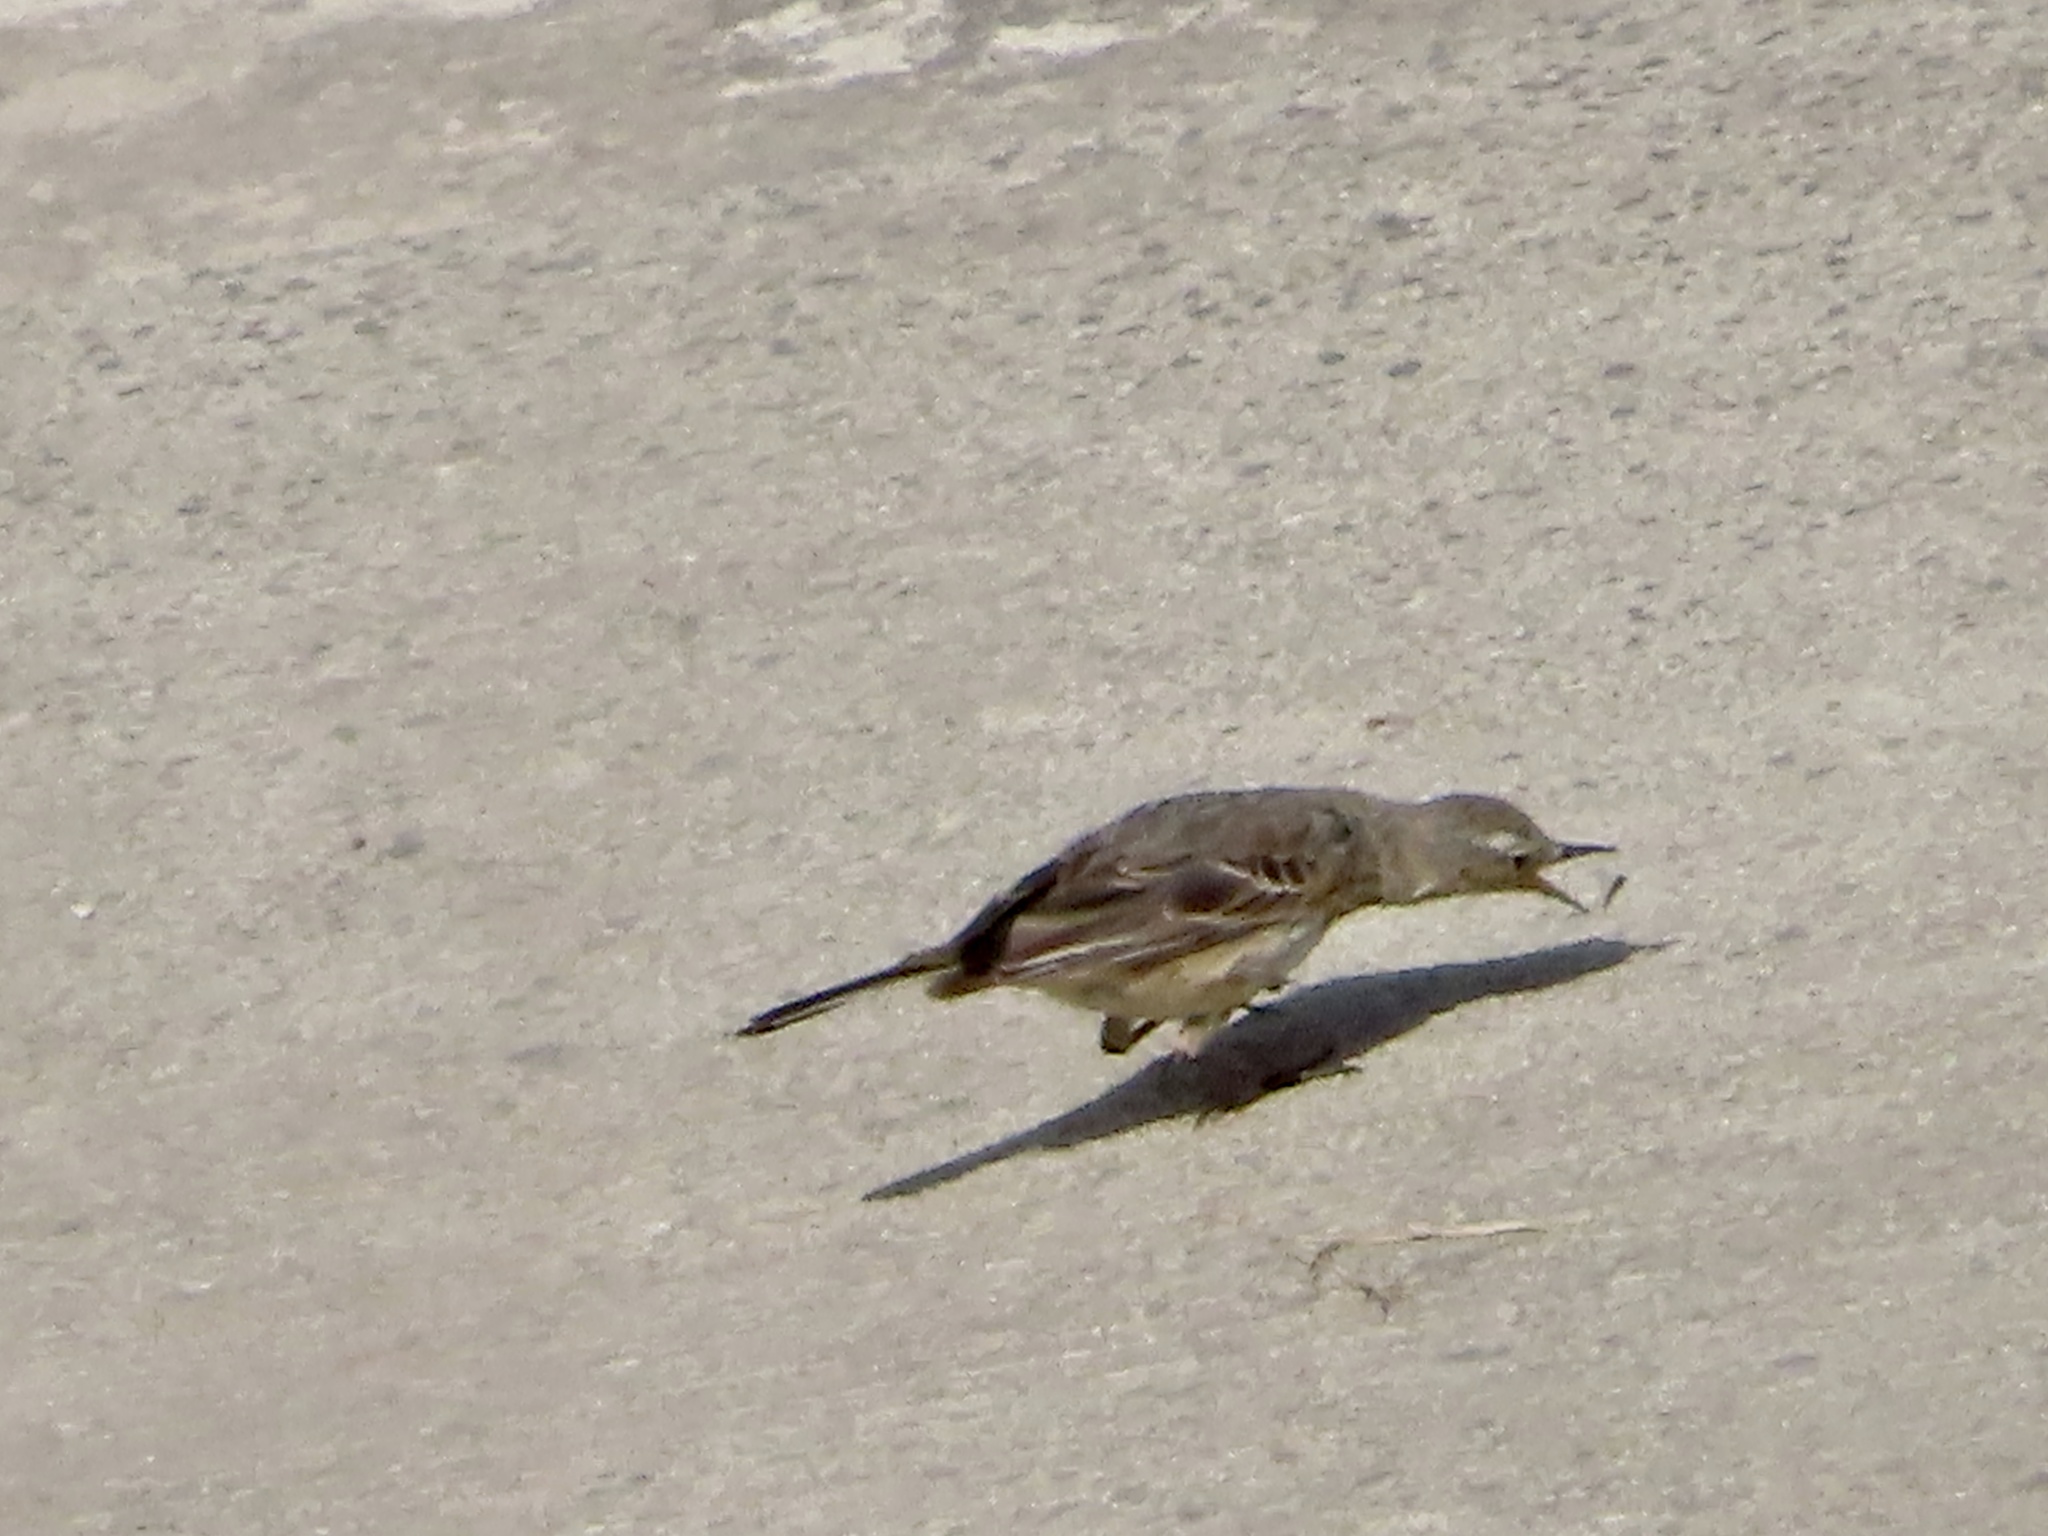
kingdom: Animalia
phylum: Chordata
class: Aves
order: Passeriformes
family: Motacillidae
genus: Anthus
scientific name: Anthus rubescens
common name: Buff-bellied pipit
